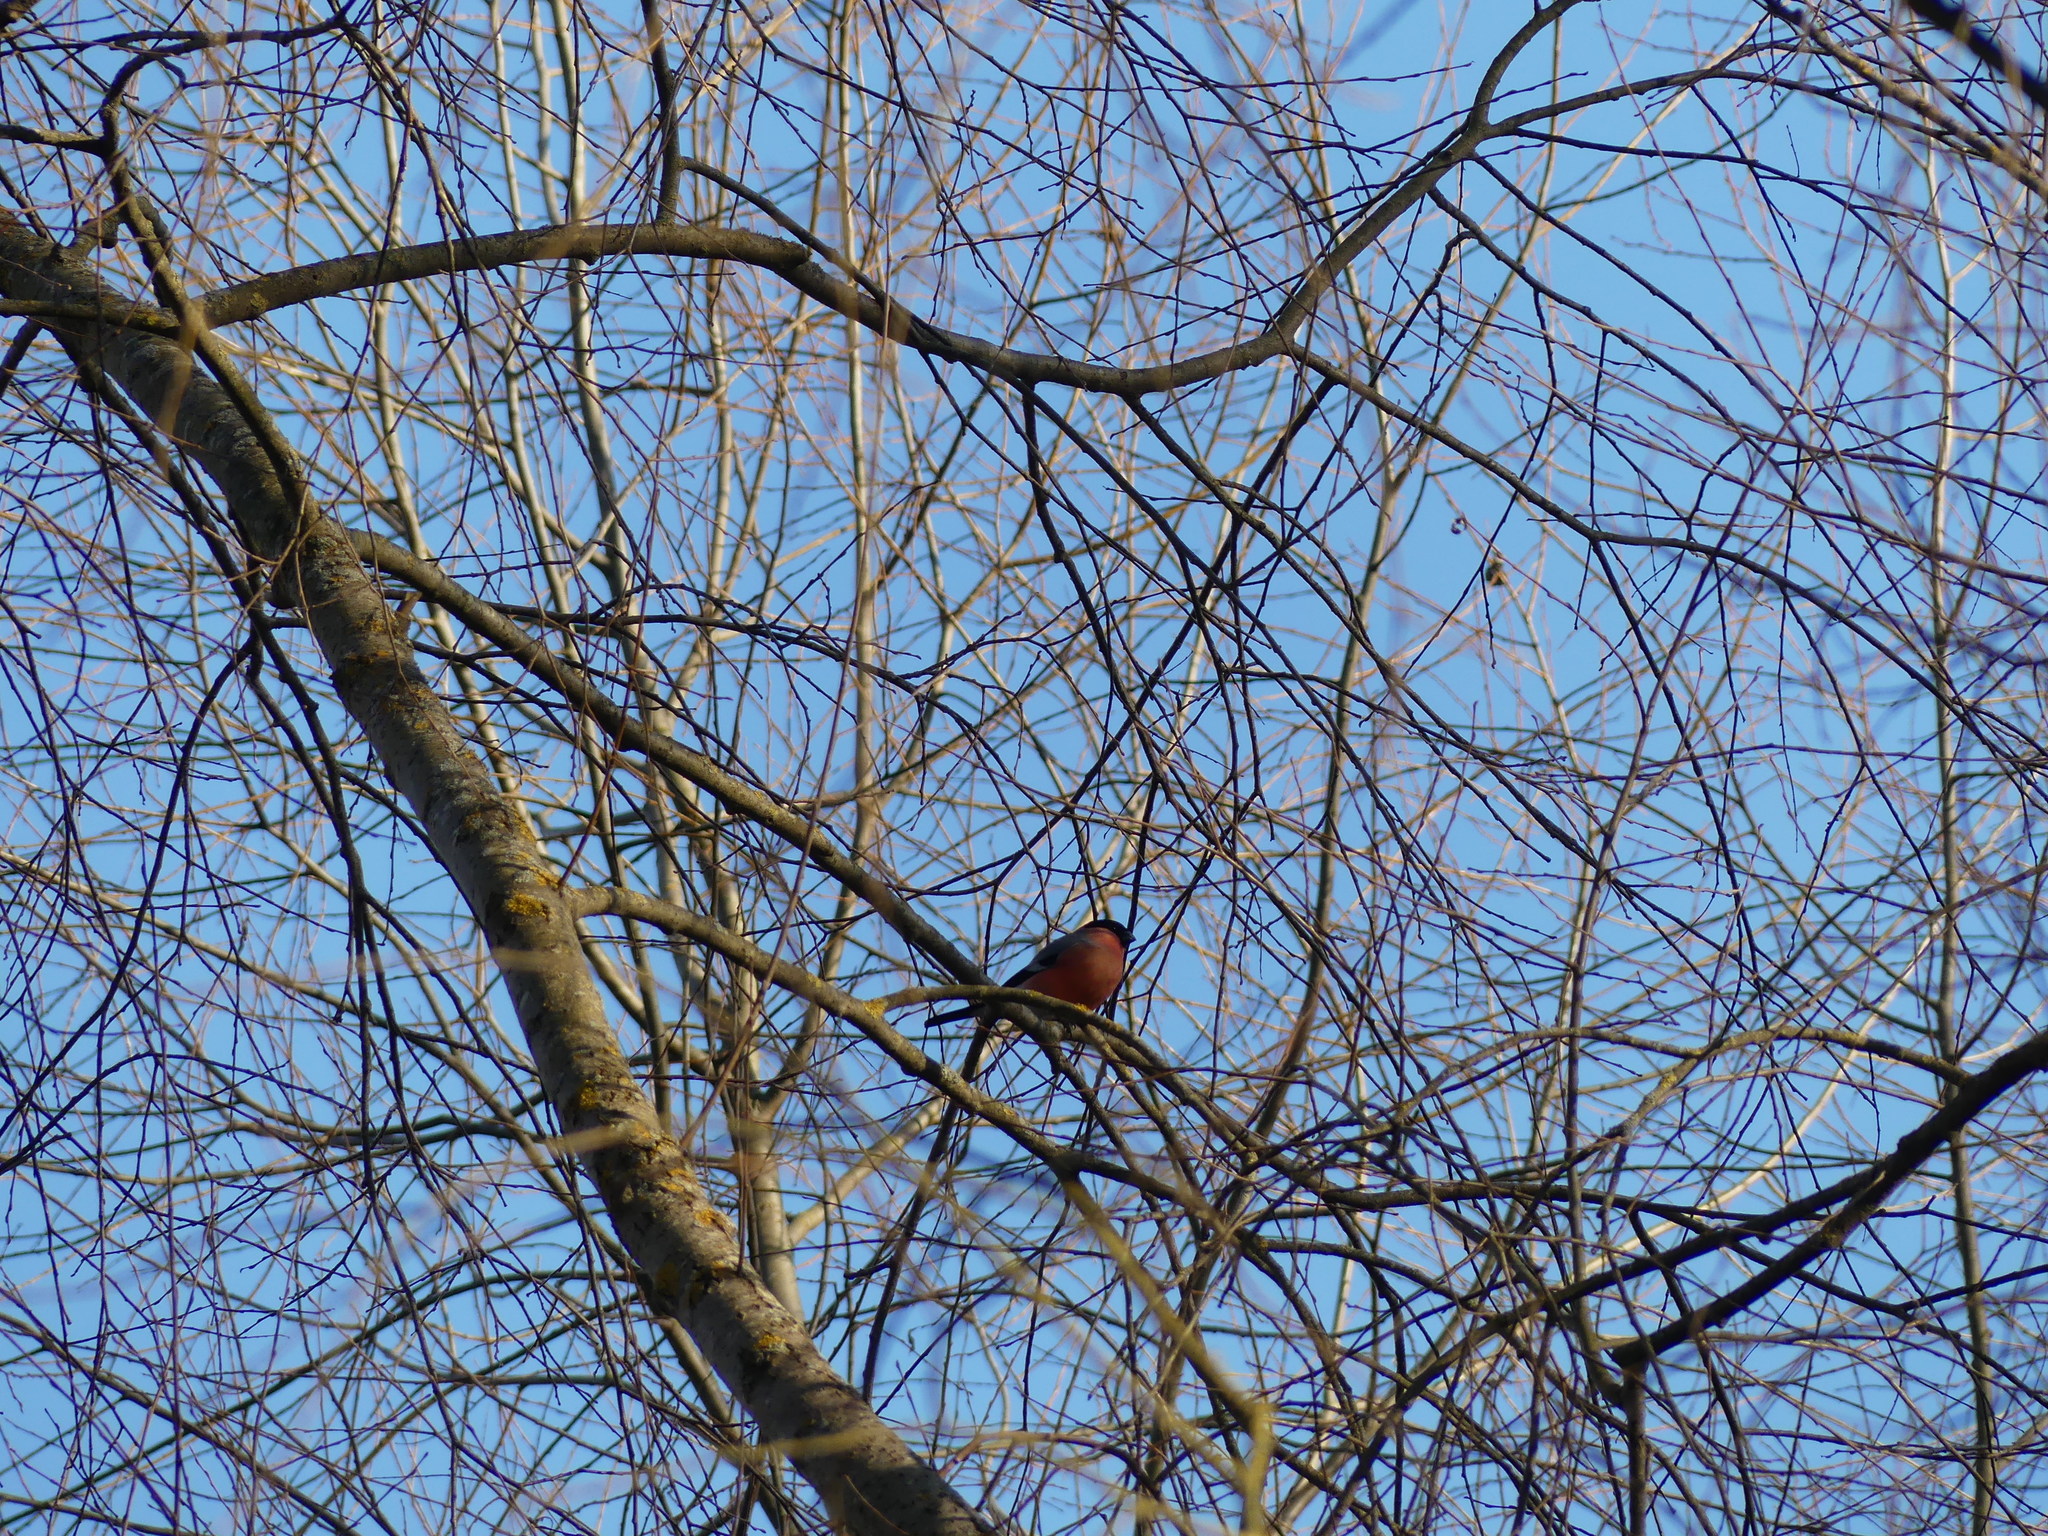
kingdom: Animalia
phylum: Chordata
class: Aves
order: Passeriformes
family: Fringillidae
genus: Pyrrhula
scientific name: Pyrrhula pyrrhula
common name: Eurasian bullfinch
